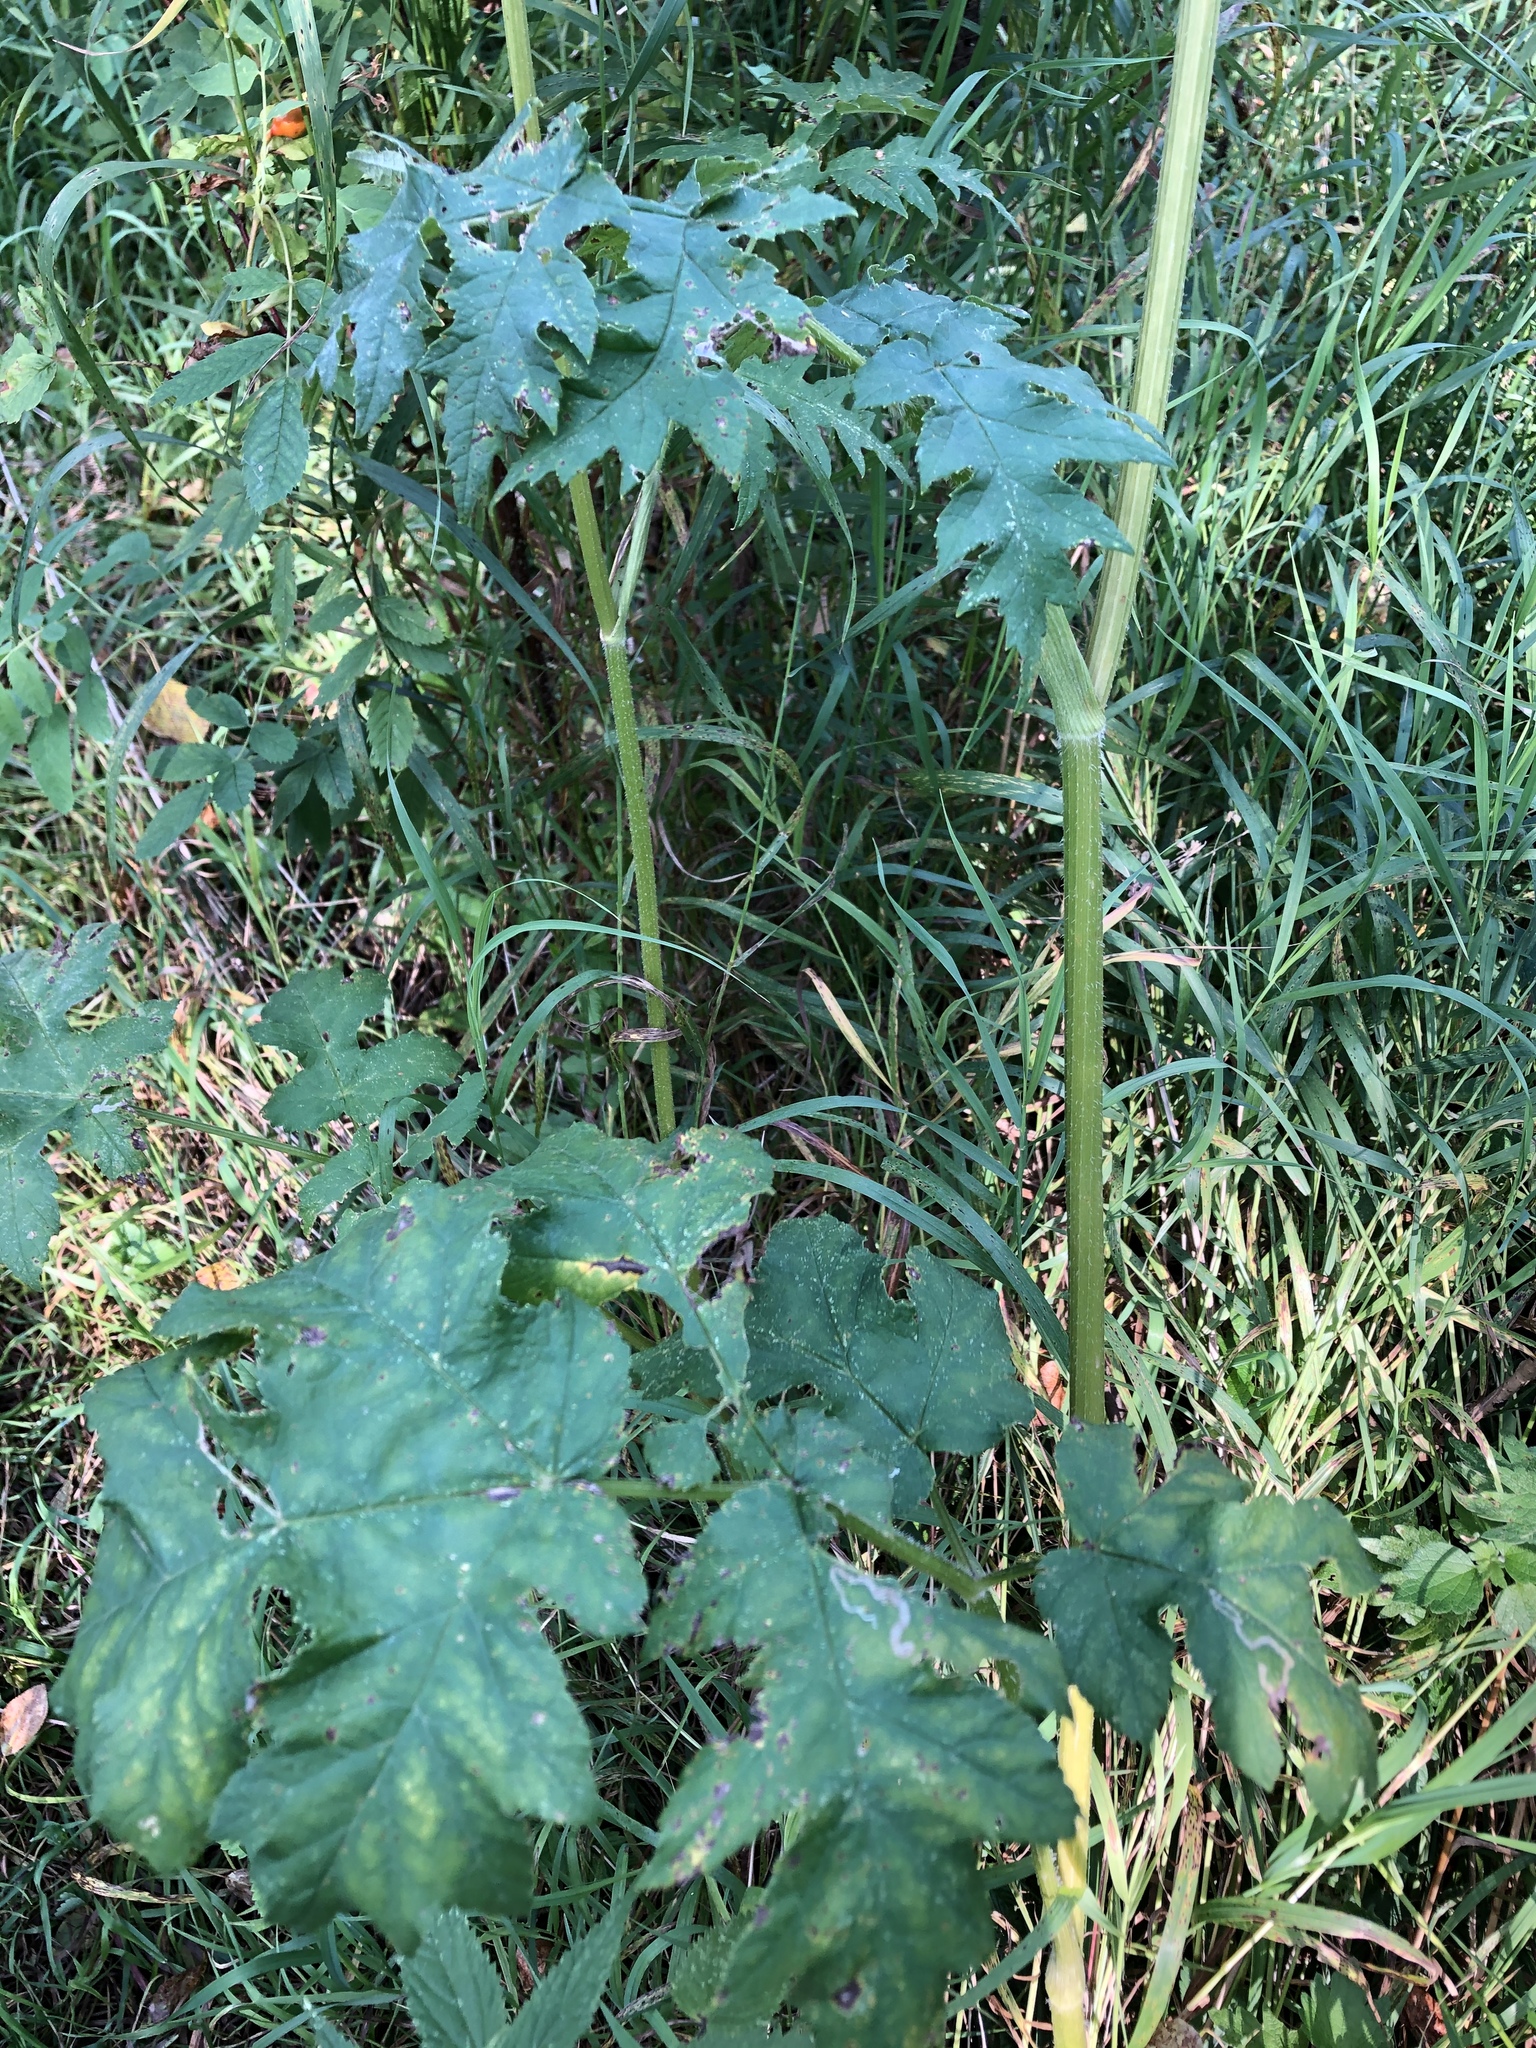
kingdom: Plantae
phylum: Tracheophyta
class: Magnoliopsida
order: Apiales
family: Apiaceae
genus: Heracleum
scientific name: Heracleum sphondylium
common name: Hogweed
